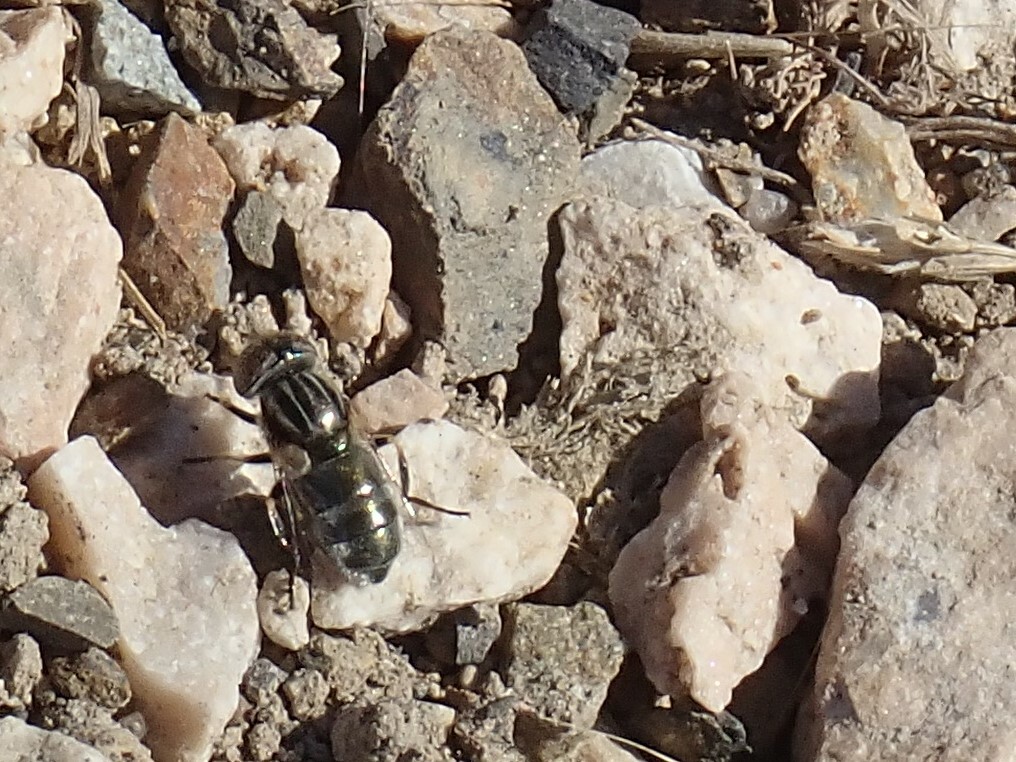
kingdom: Animalia
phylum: Arthropoda
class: Insecta
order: Diptera
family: Syrphidae
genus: Eristalinus
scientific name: Eristalinus aeneus
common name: Syrphid fly
